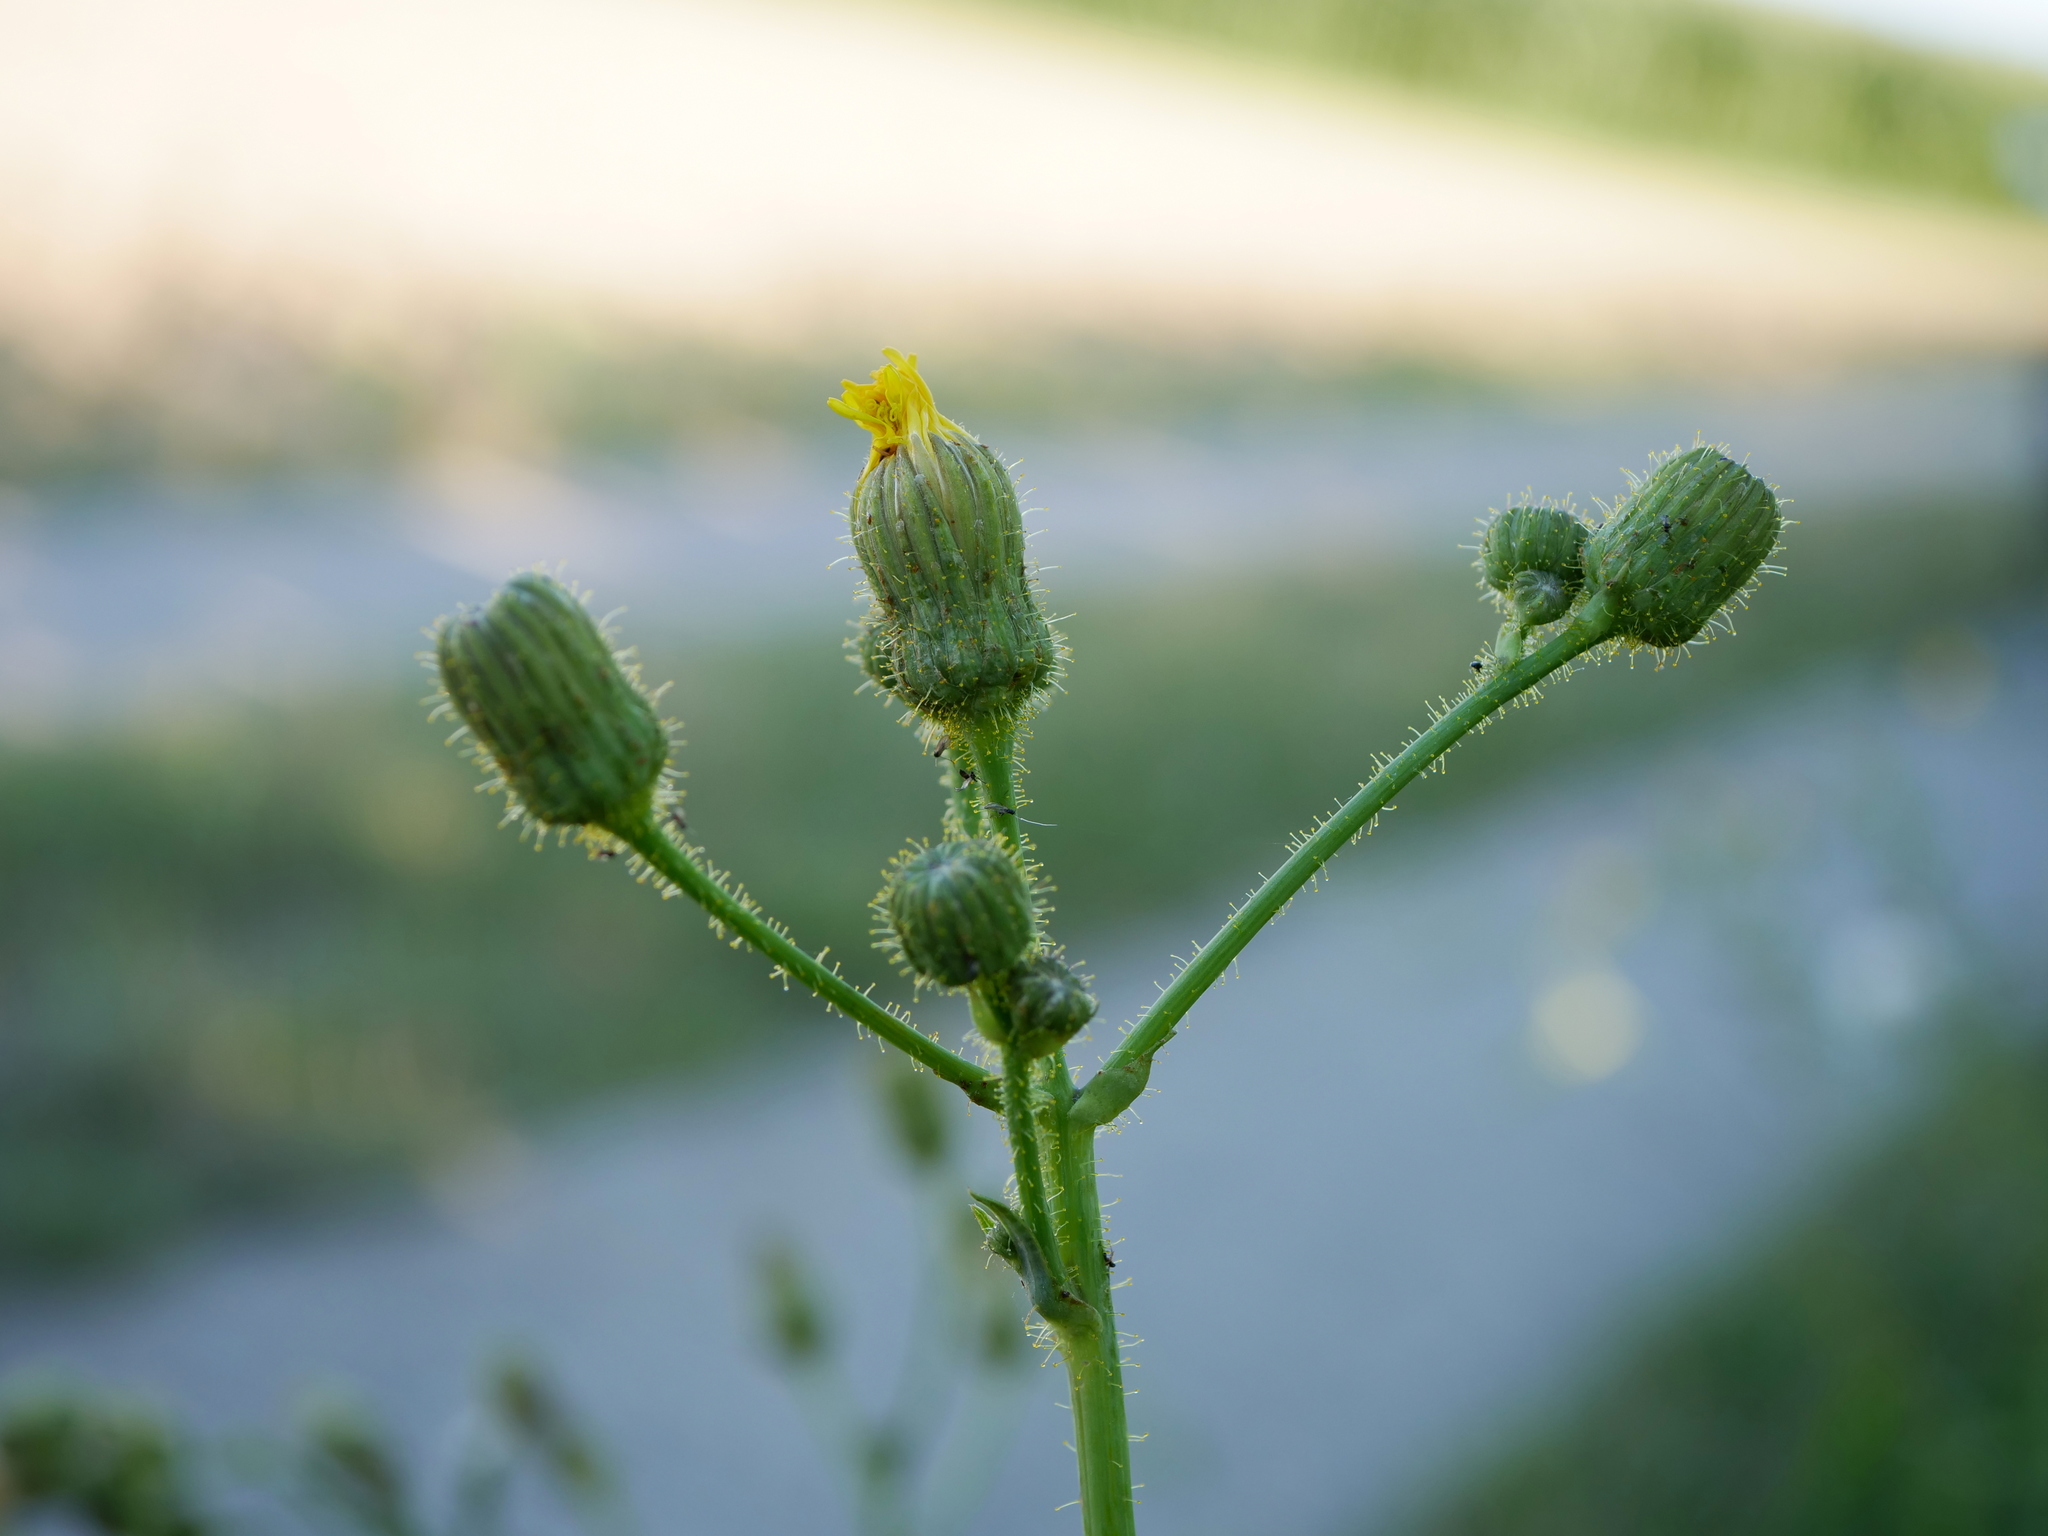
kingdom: Plantae
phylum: Tracheophyta
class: Magnoliopsida
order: Asterales
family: Asteraceae
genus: Sonchus
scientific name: Sonchus arvensis
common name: Perennial sow-thistle
